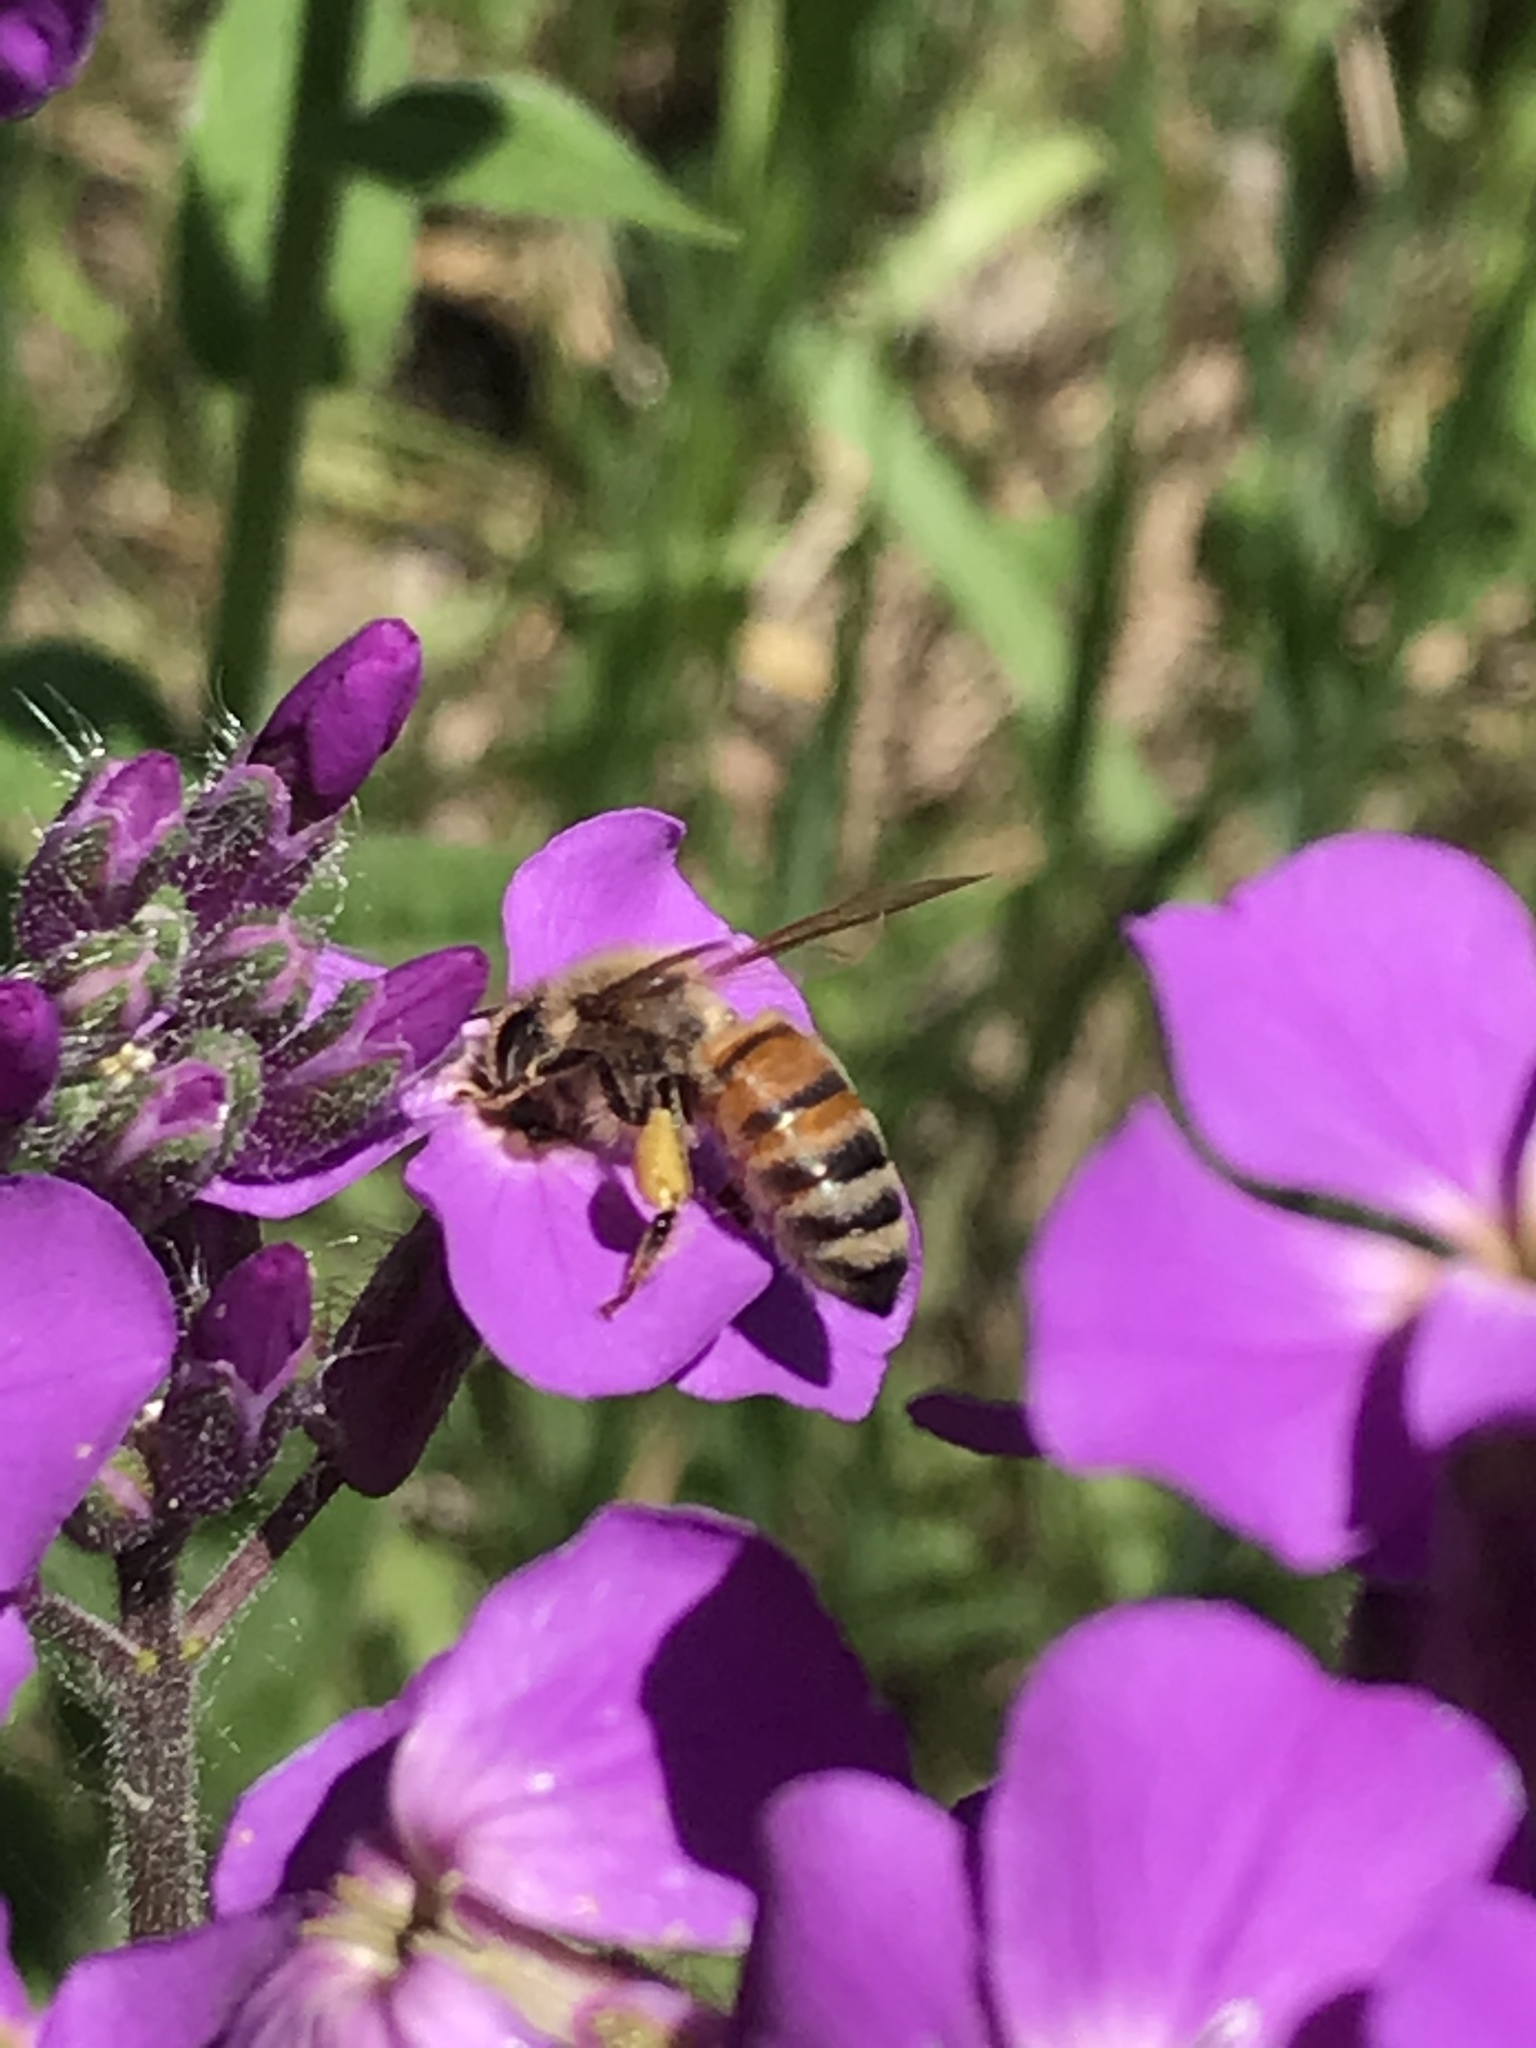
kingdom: Animalia
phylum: Arthropoda
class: Insecta
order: Hymenoptera
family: Apidae
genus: Apis
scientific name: Apis mellifera
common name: Honey bee
